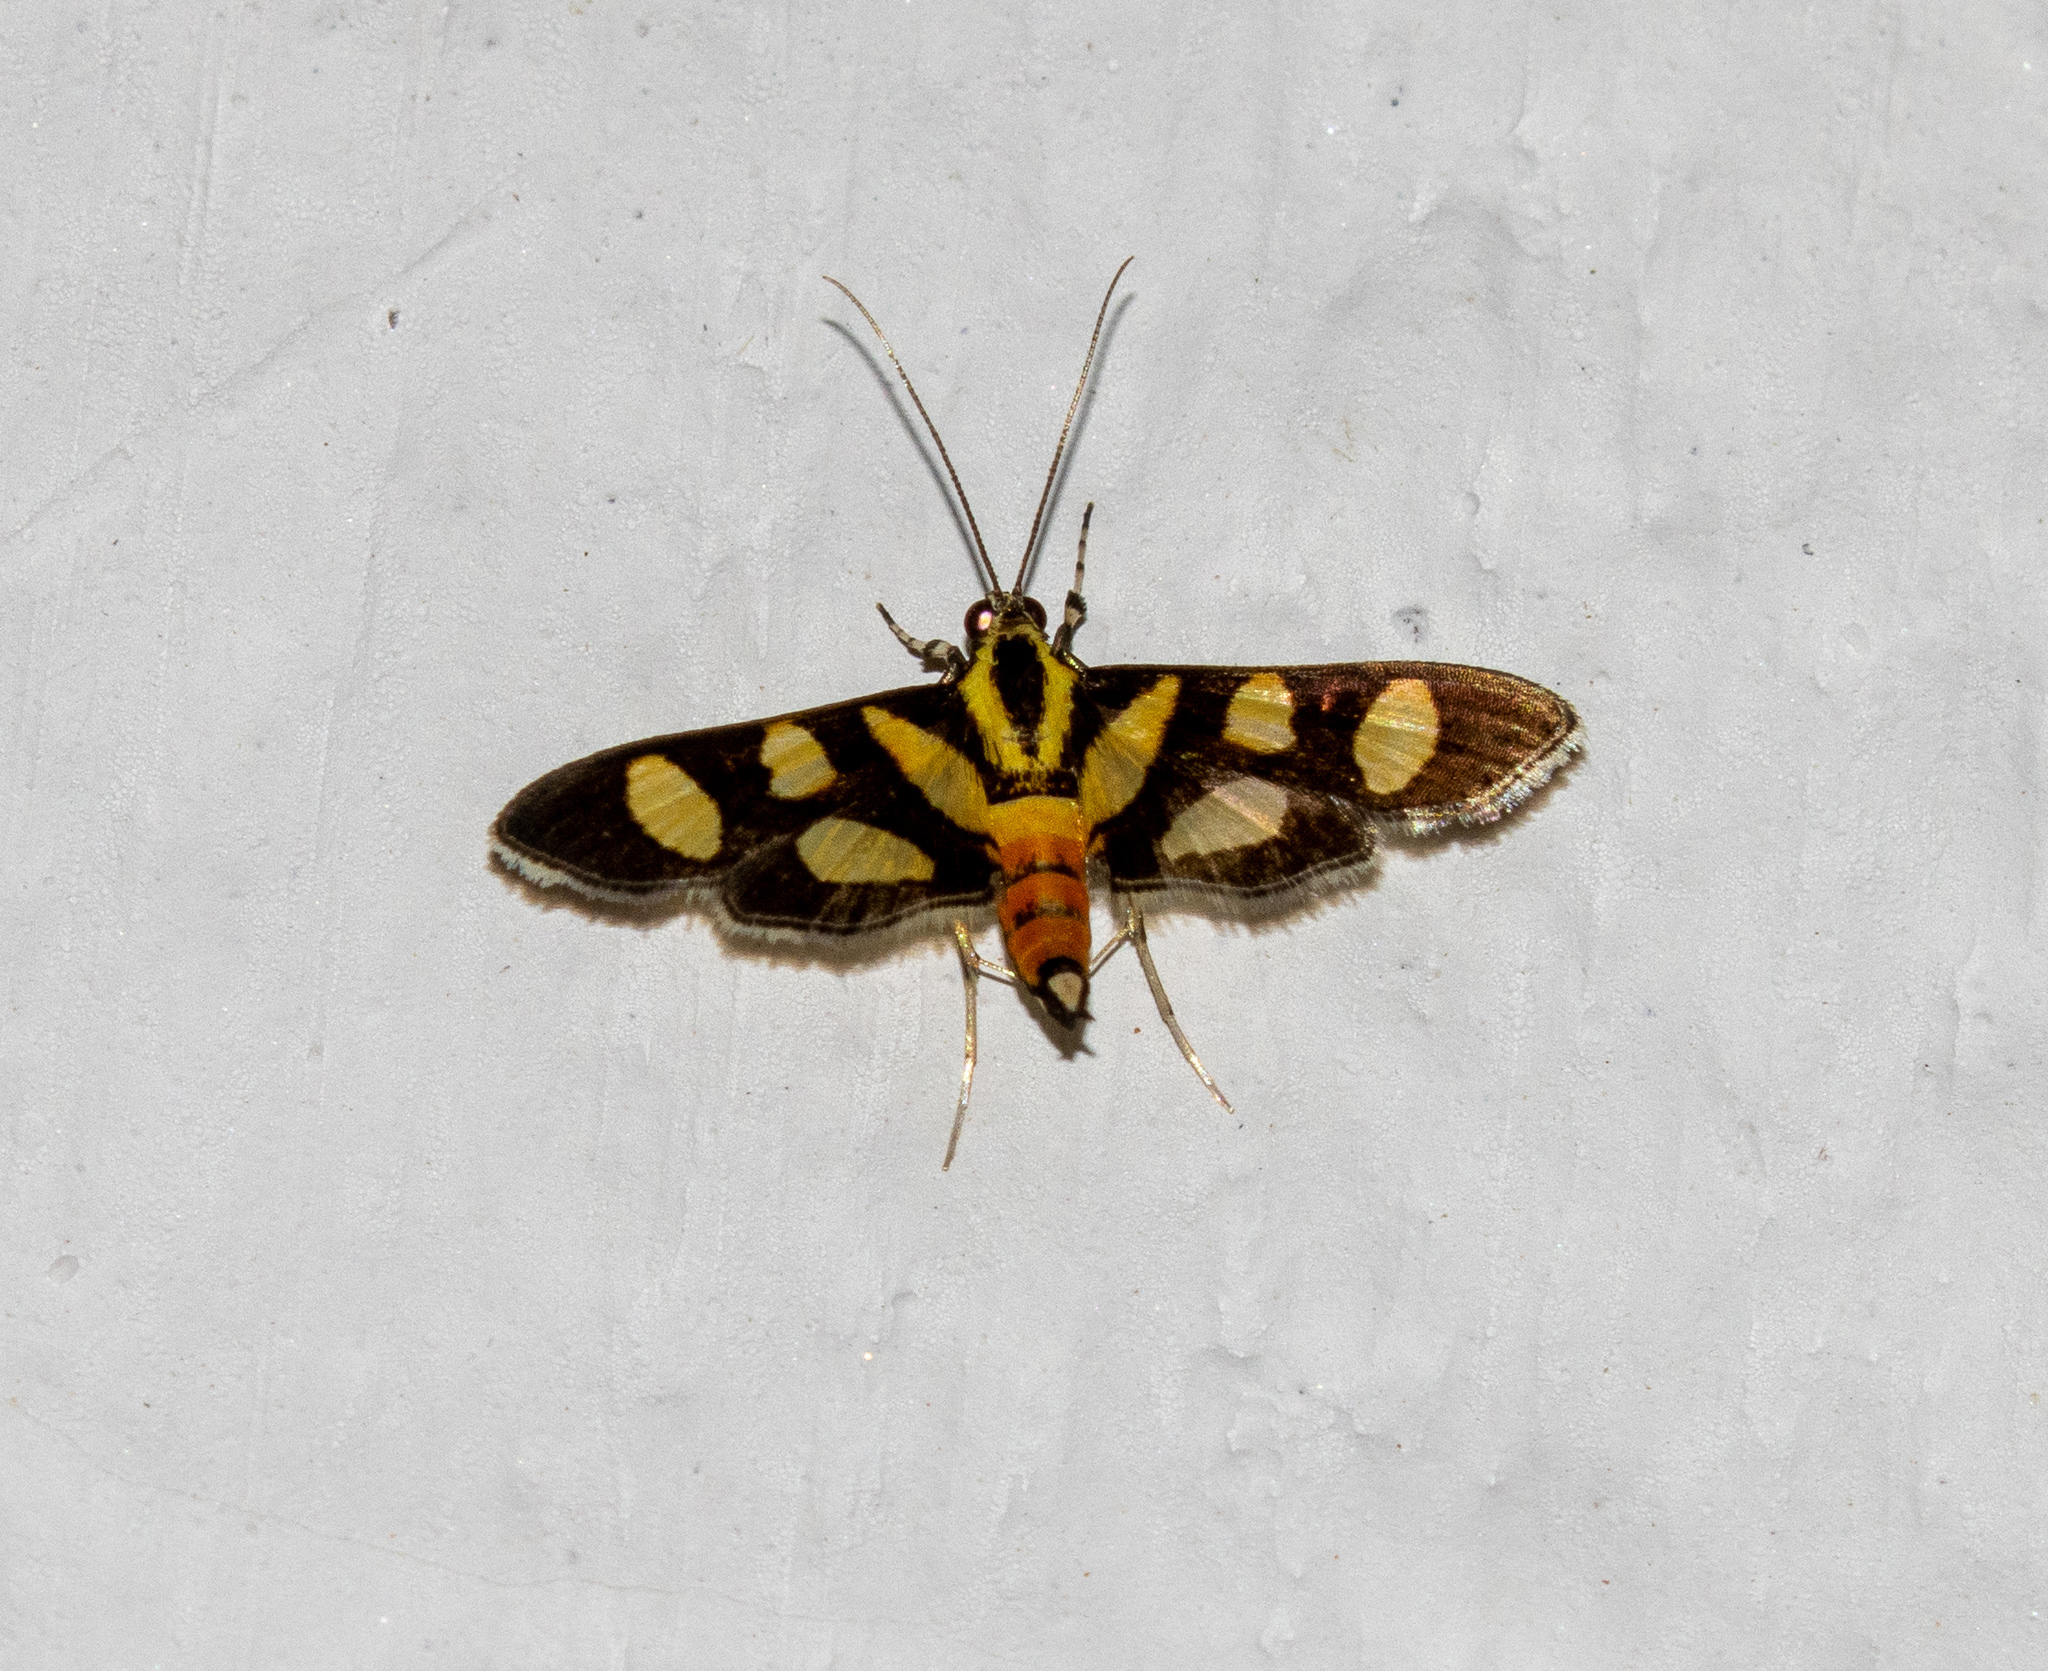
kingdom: Animalia
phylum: Arthropoda
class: Insecta
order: Lepidoptera
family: Crambidae
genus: Syngamia
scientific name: Syngamia florella
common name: Orange-spotted flower moth
